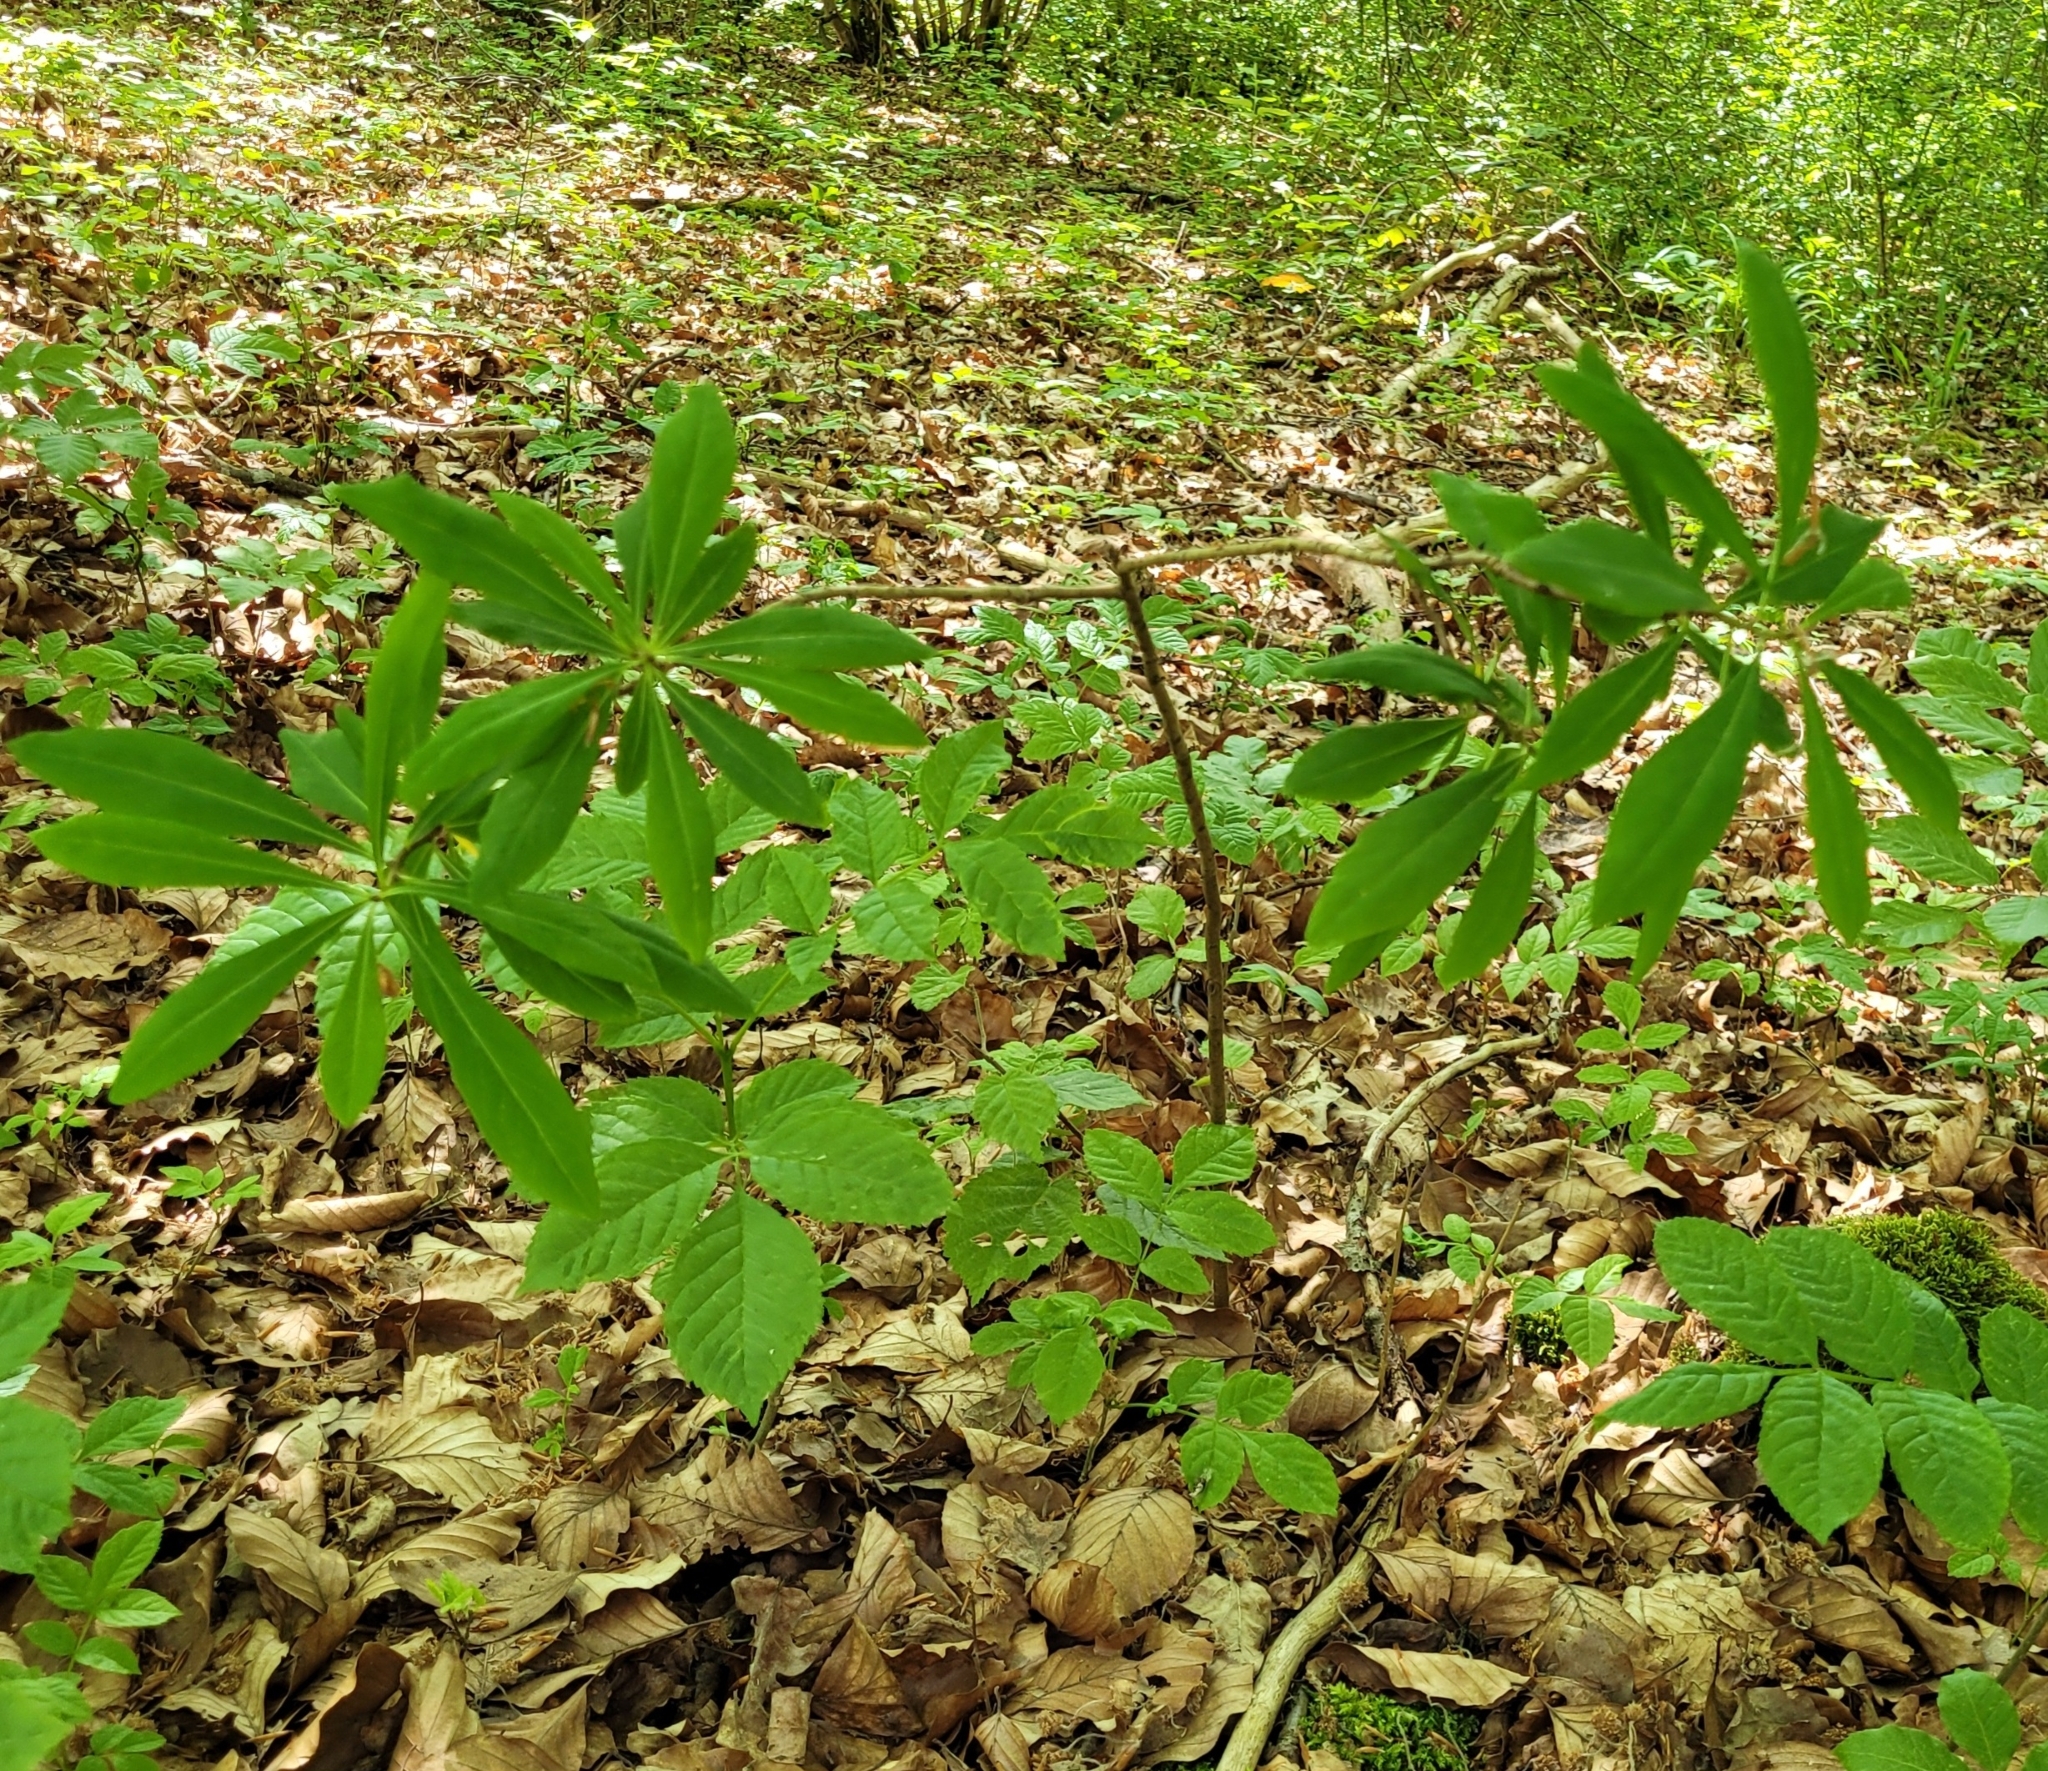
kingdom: Plantae
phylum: Tracheophyta
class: Magnoliopsida
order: Malvales
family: Thymelaeaceae
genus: Daphne
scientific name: Daphne mezereum
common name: Mezereon
